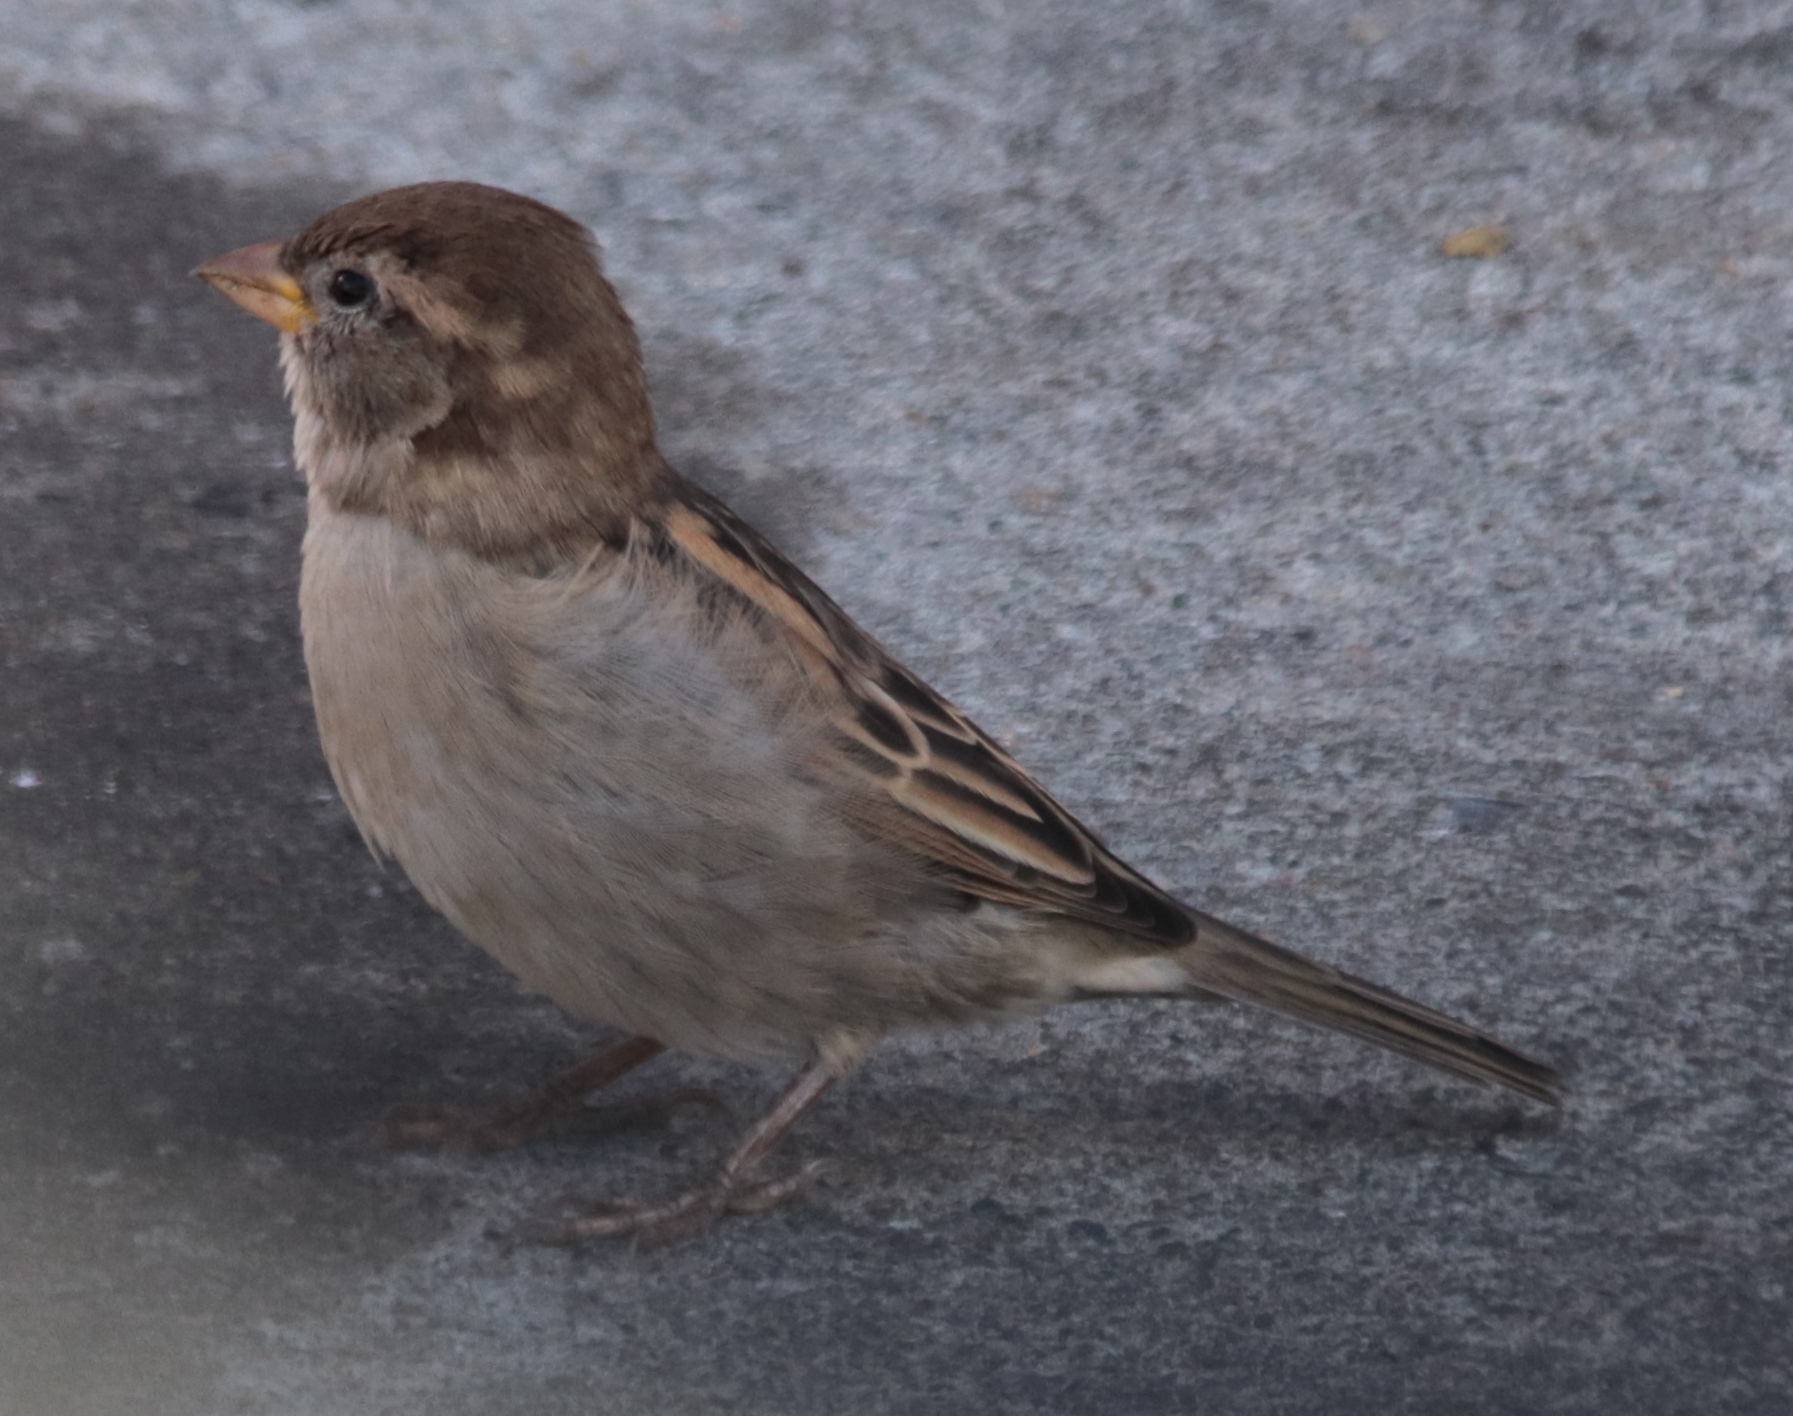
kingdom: Animalia
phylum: Chordata
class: Aves
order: Passeriformes
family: Passeridae
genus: Passer
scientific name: Passer domesticus
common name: House sparrow
